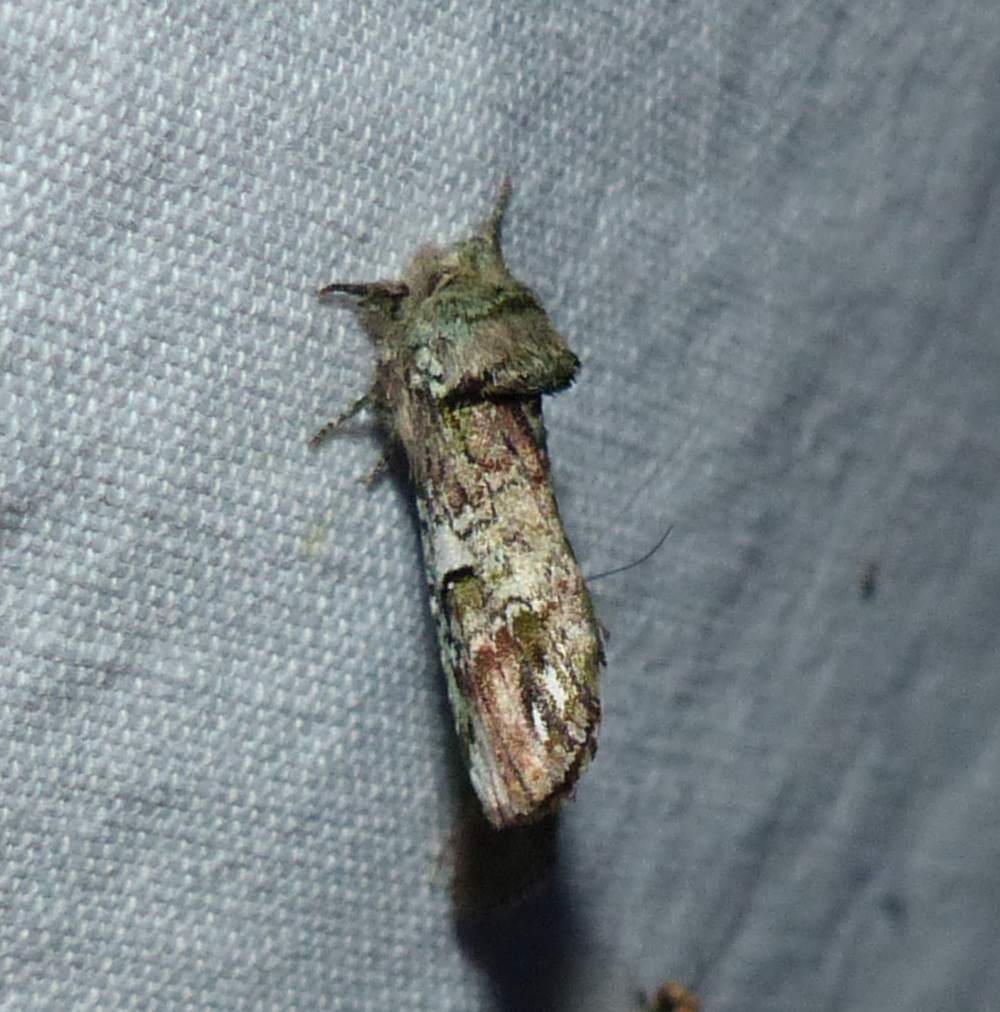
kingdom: Animalia
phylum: Arthropoda
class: Insecta
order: Lepidoptera
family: Notodontidae
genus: Schizura
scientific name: Schizura
